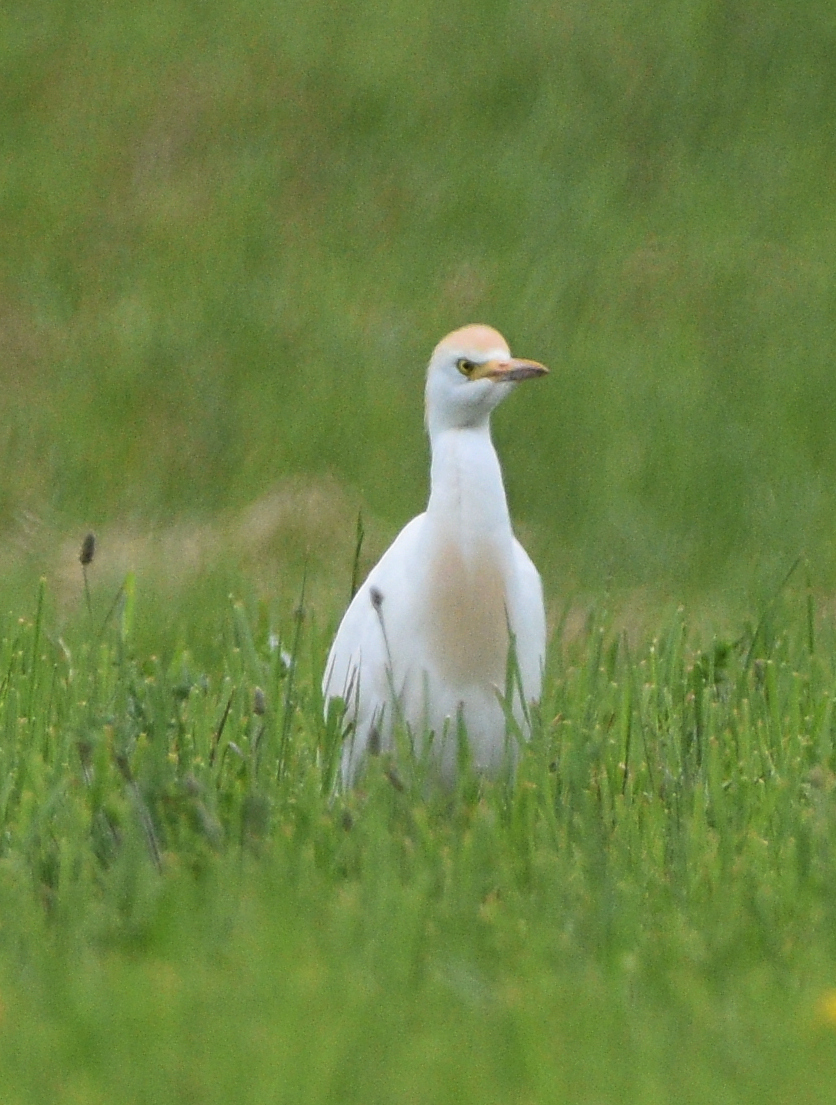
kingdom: Animalia
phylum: Chordata
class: Aves
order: Pelecaniformes
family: Ardeidae
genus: Bubulcus
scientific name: Bubulcus ibis
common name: Cattle egret
